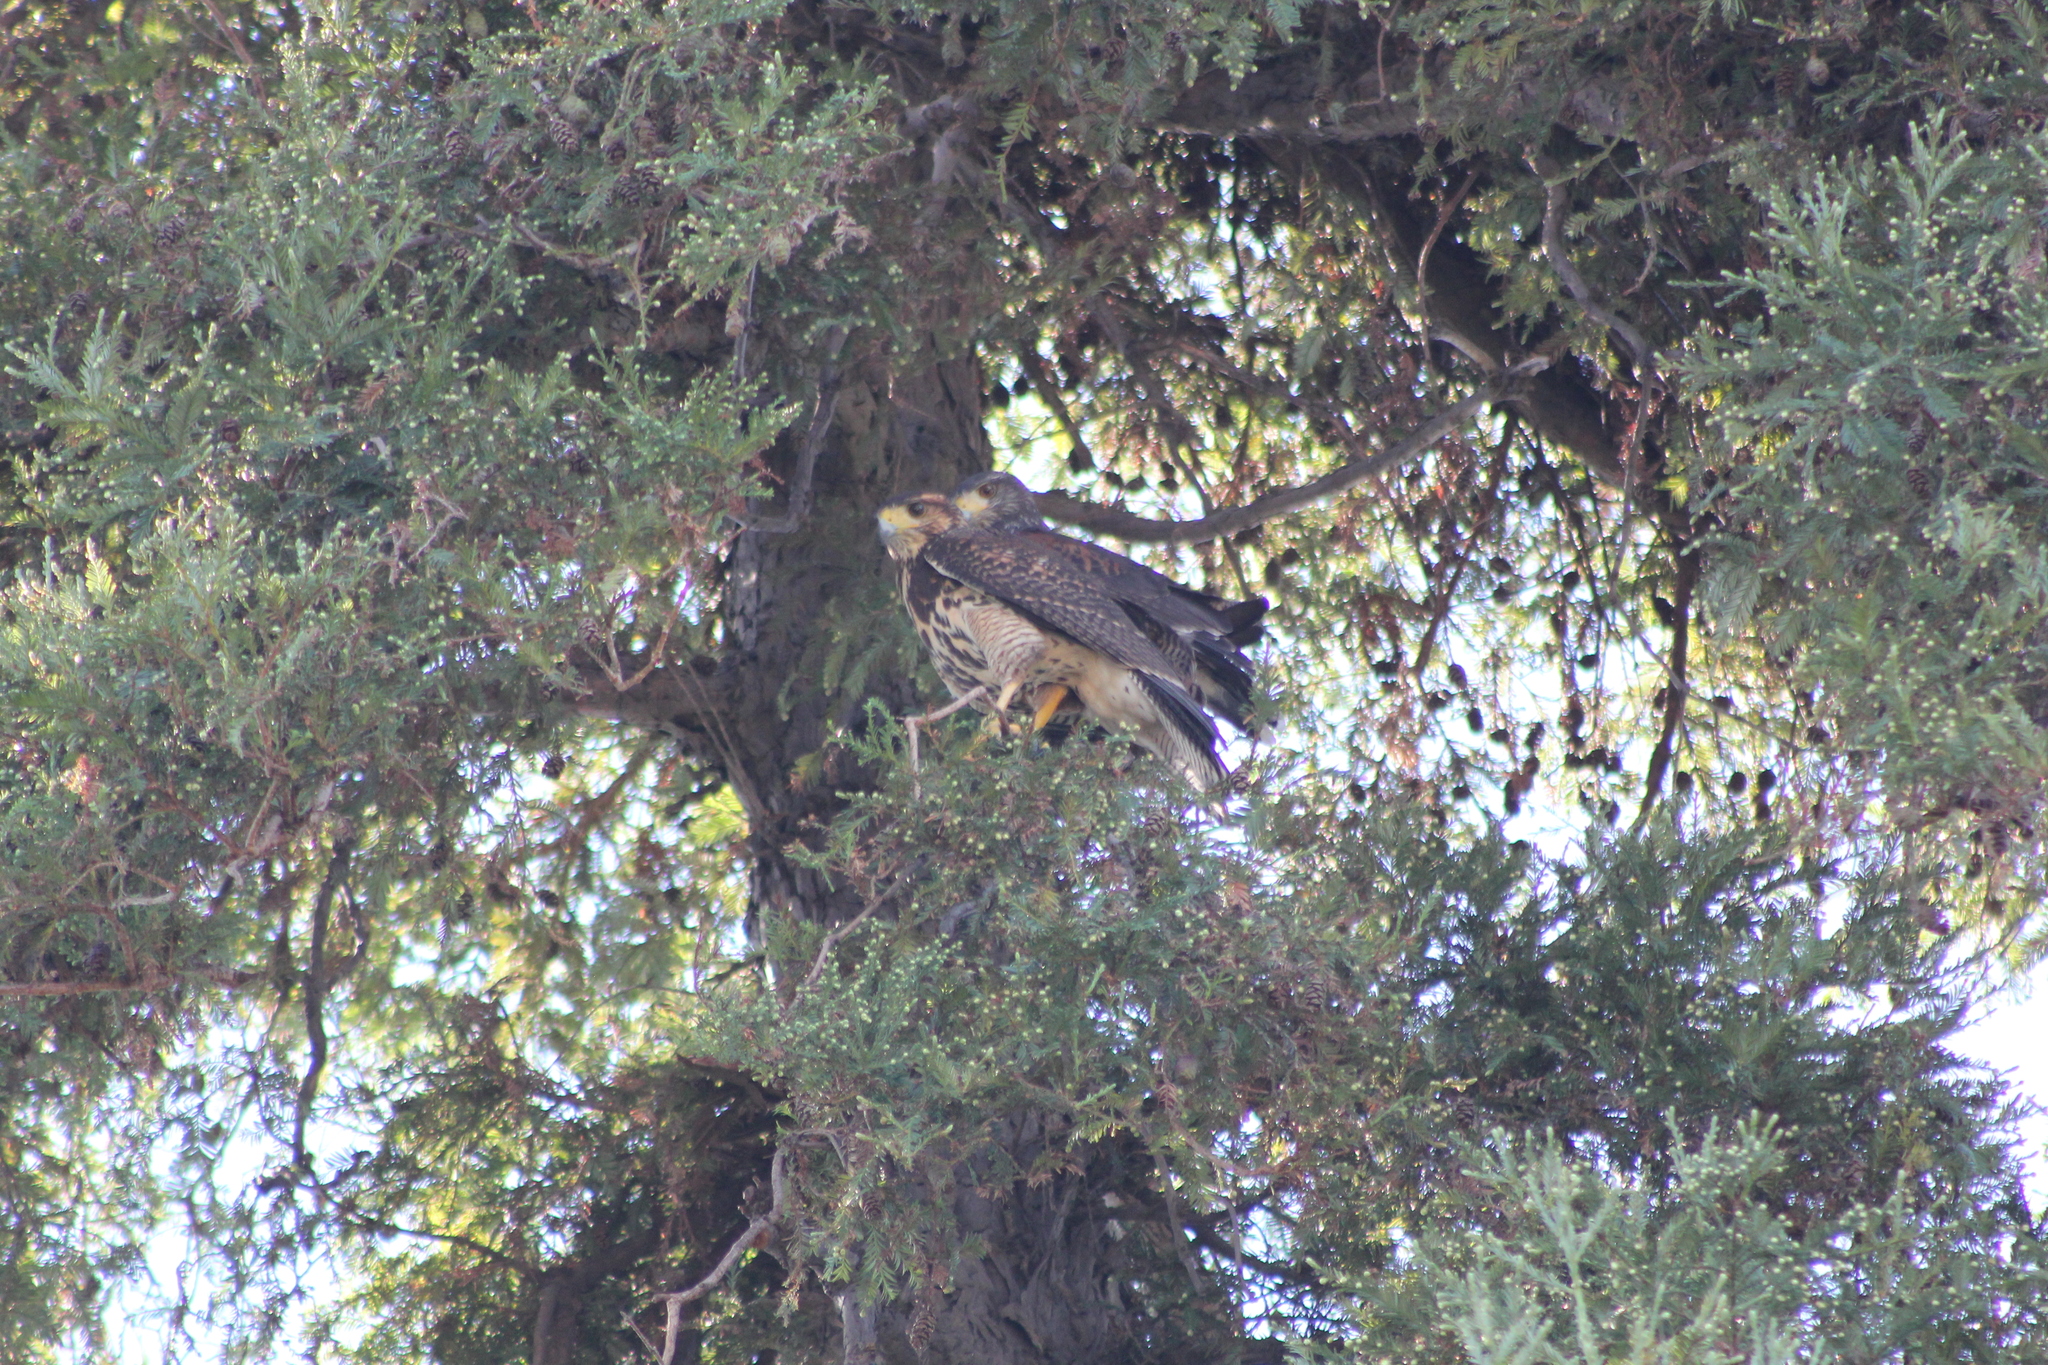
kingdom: Animalia
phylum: Chordata
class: Aves
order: Accipitriformes
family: Accipitridae
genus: Parabuteo
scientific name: Parabuteo unicinctus
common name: Harris's hawk
